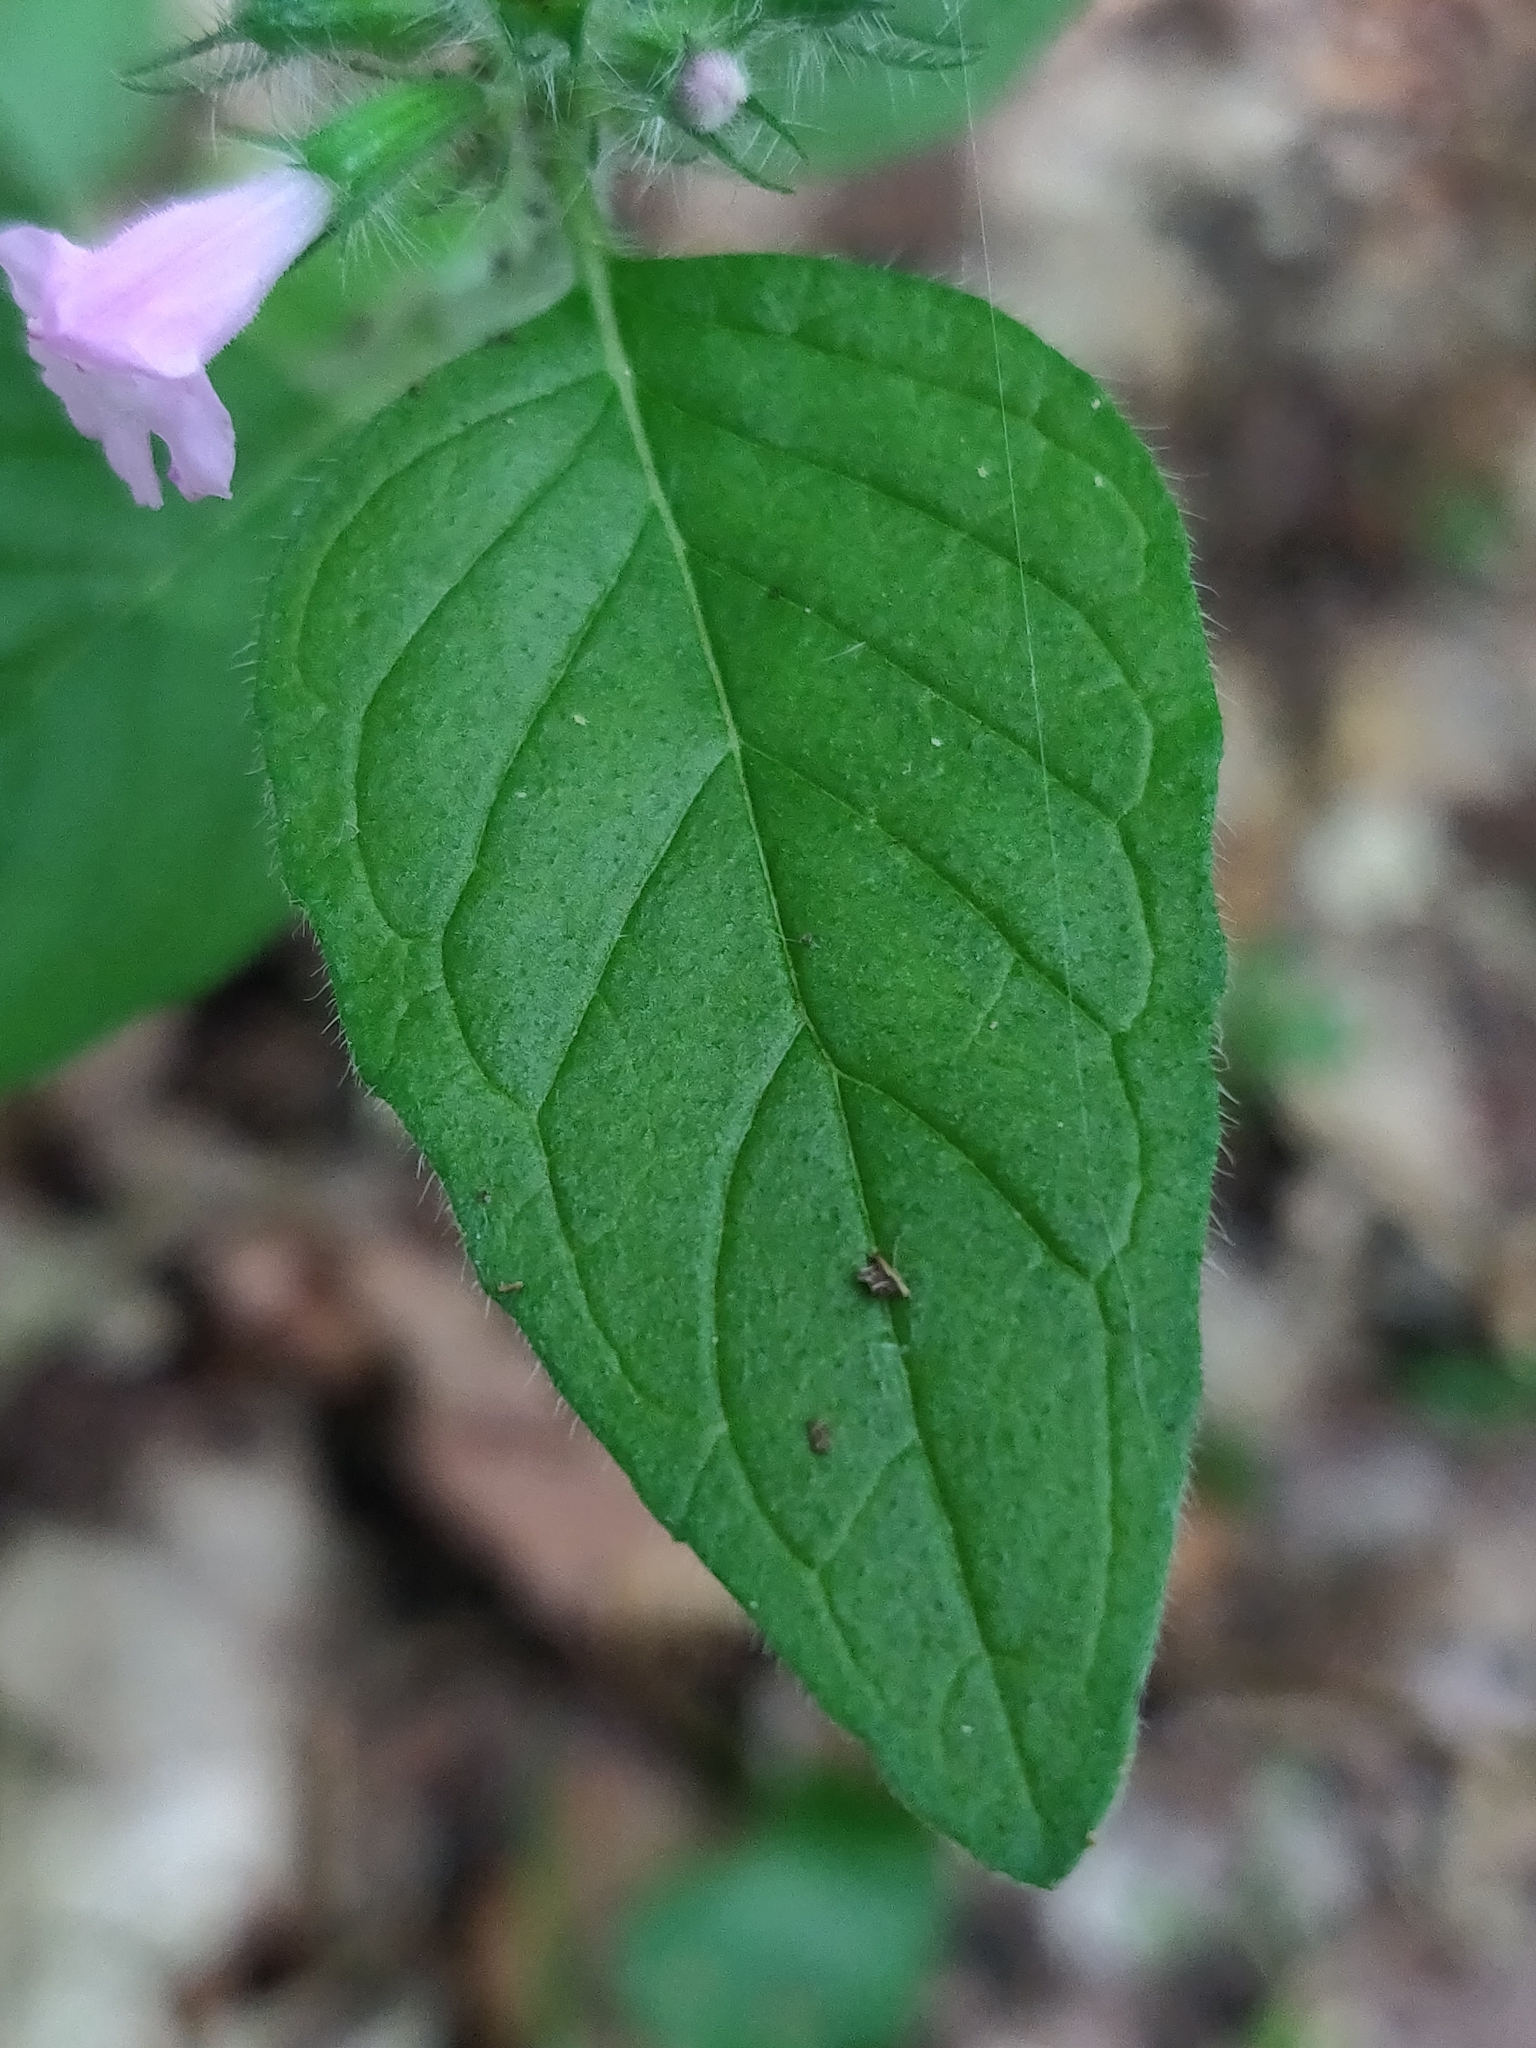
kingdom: Plantae
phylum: Tracheophyta
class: Magnoliopsida
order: Lamiales
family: Lamiaceae
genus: Clinopodium
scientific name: Clinopodium vulgare
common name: Wild basil
